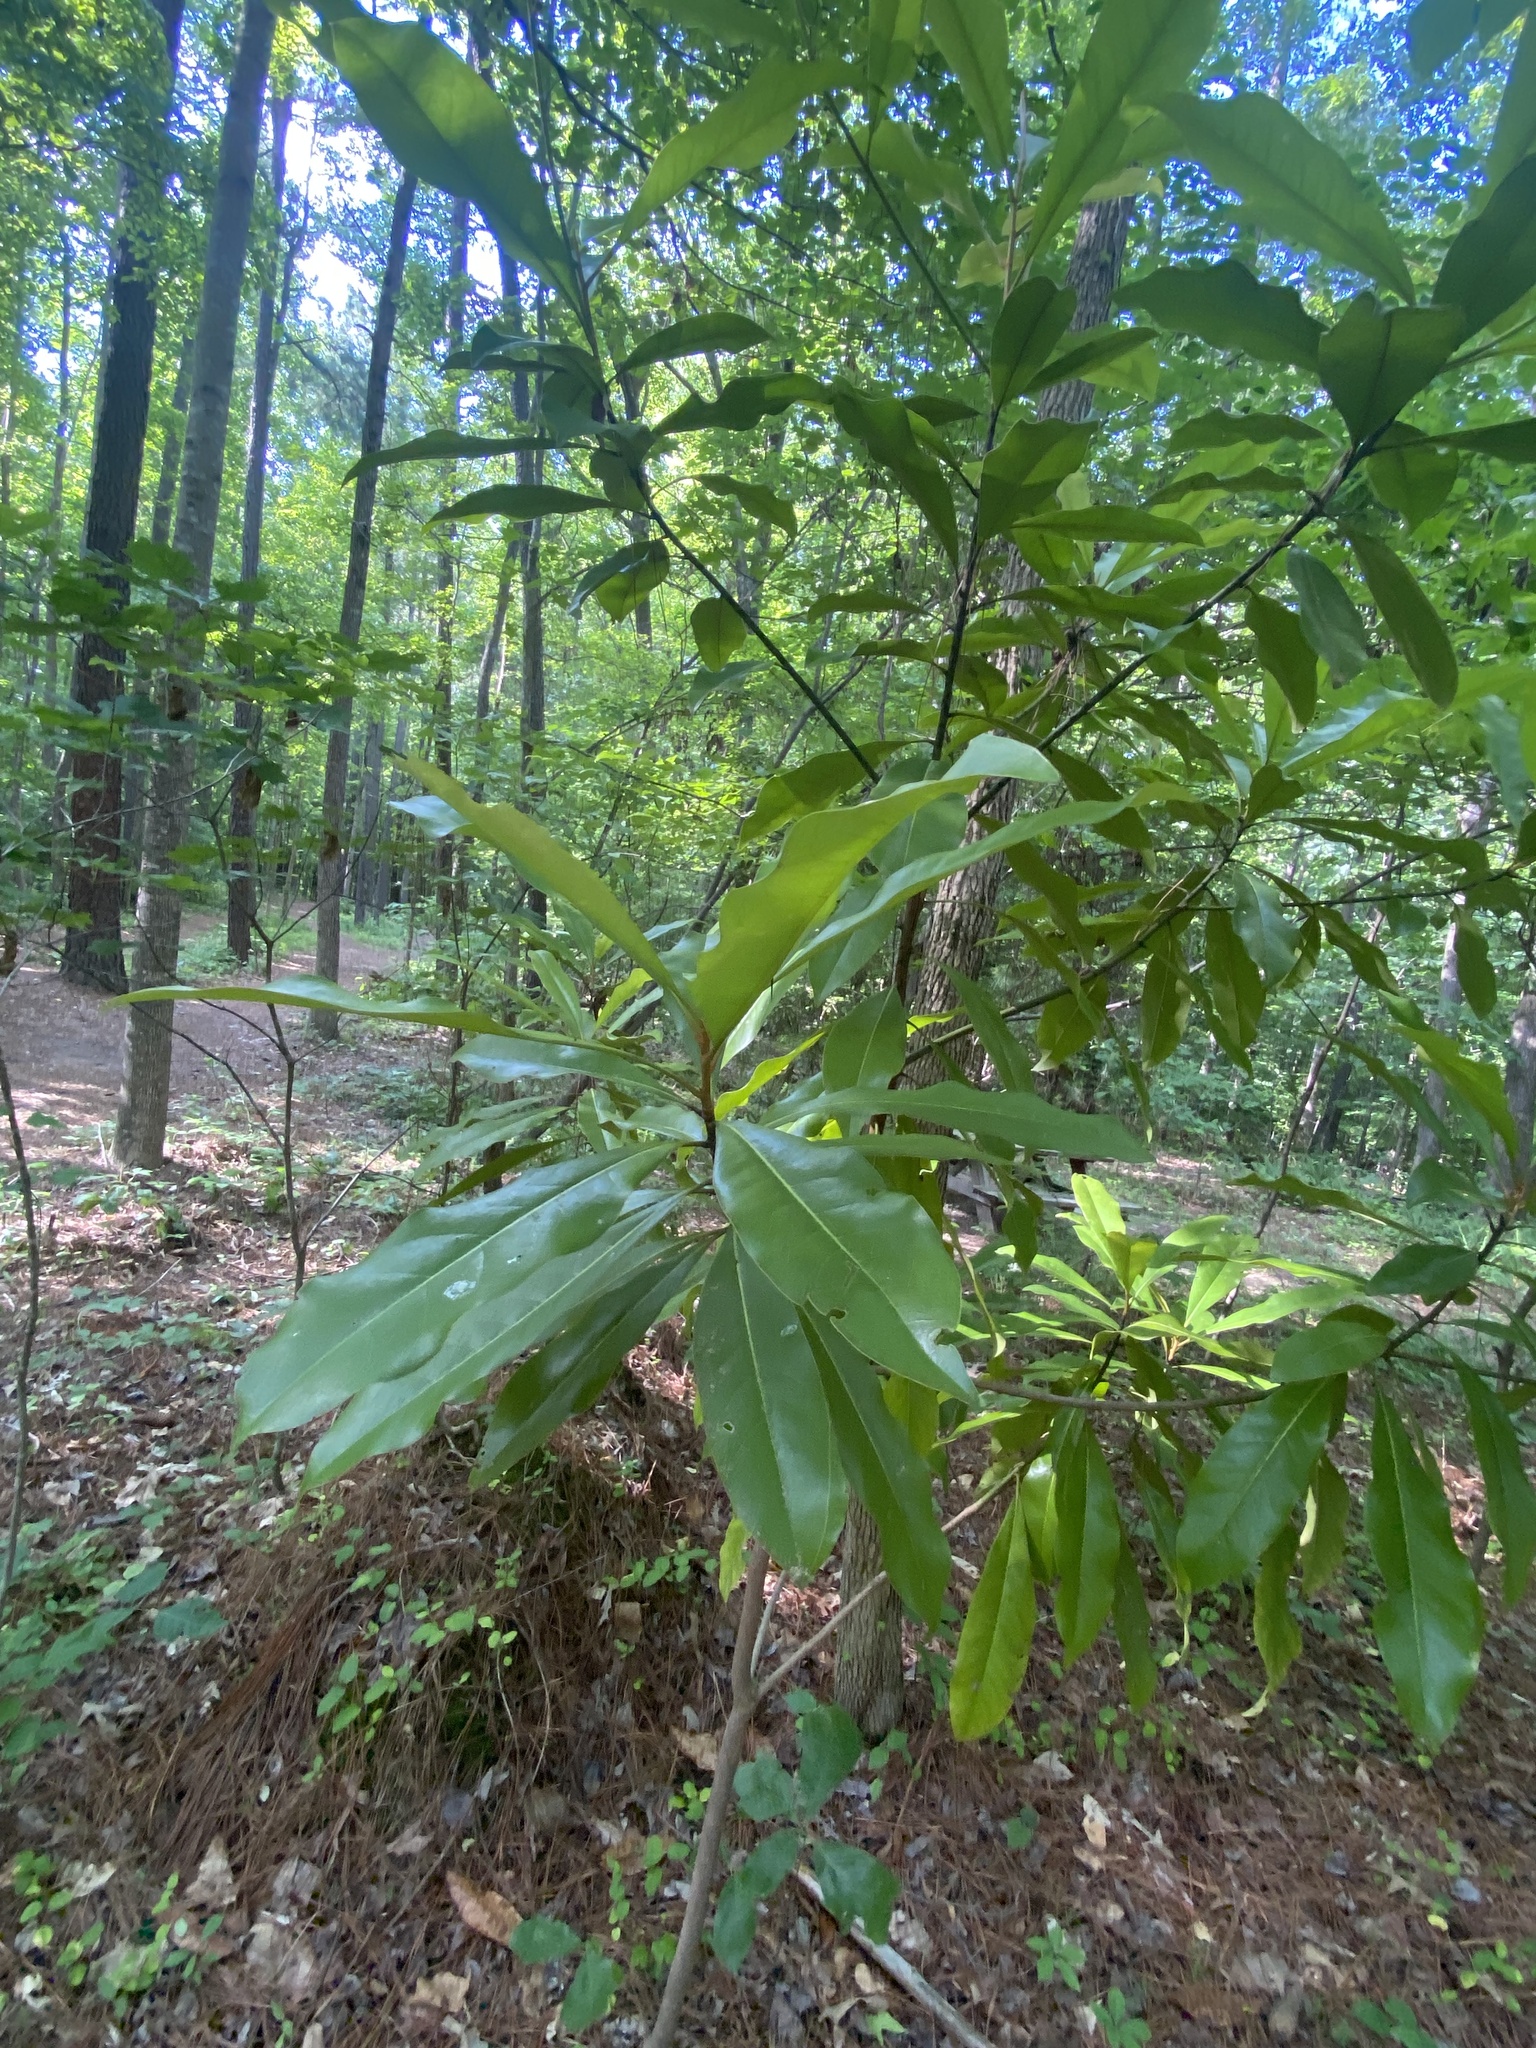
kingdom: Plantae
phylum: Tracheophyta
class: Magnoliopsida
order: Magnoliales
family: Magnoliaceae
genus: Magnolia
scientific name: Magnolia grandiflora
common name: Southern magnolia
